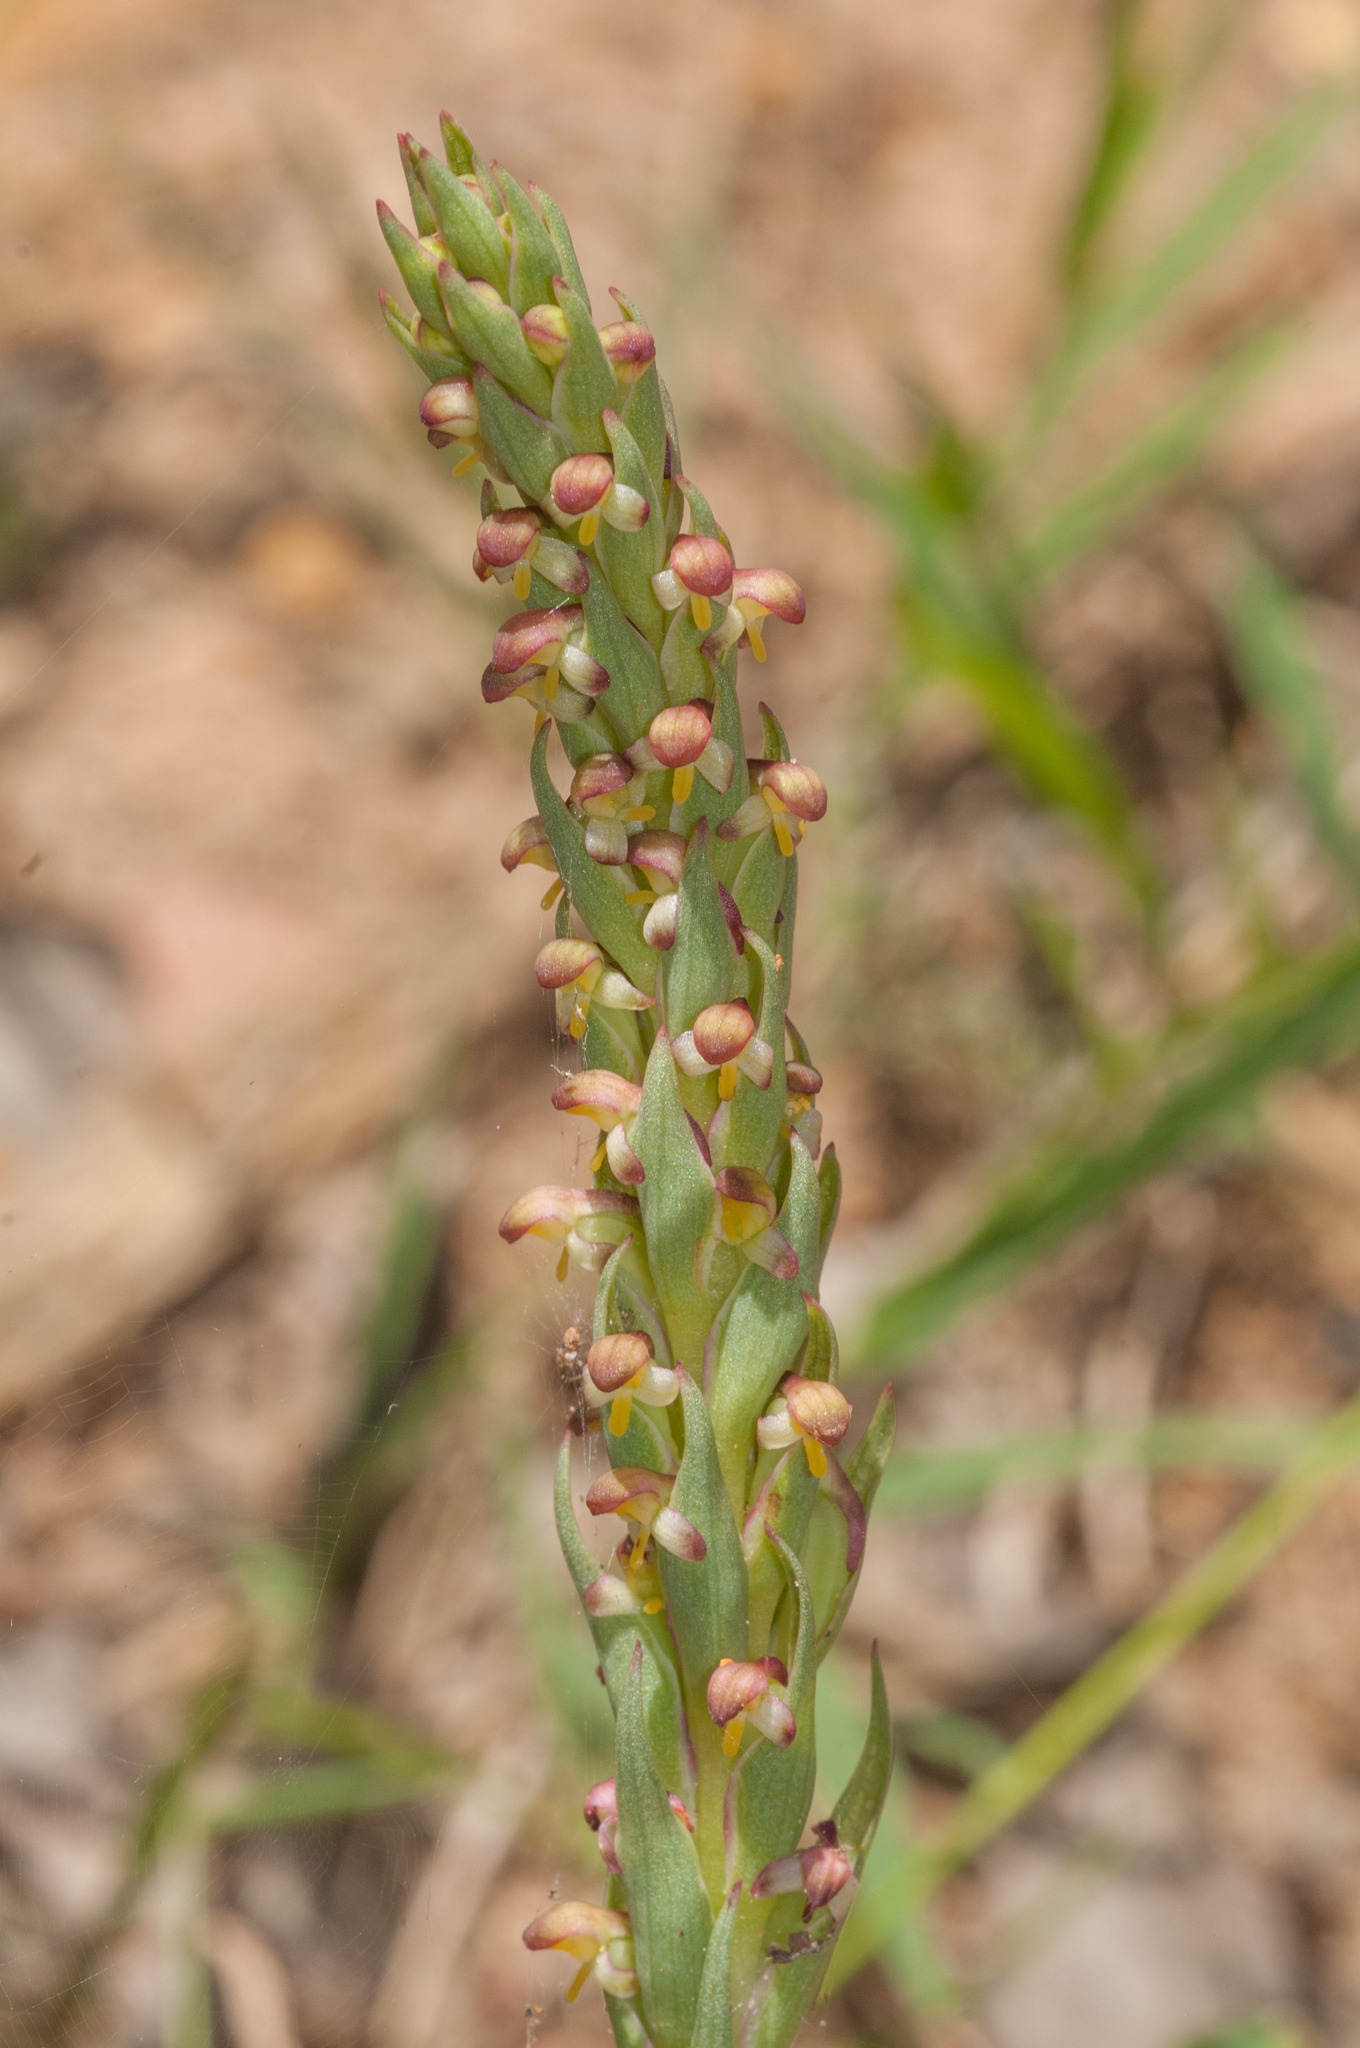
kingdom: Plantae
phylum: Tracheophyta
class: Liliopsida
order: Asparagales
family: Orchidaceae
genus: Disa
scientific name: Disa bracteata
